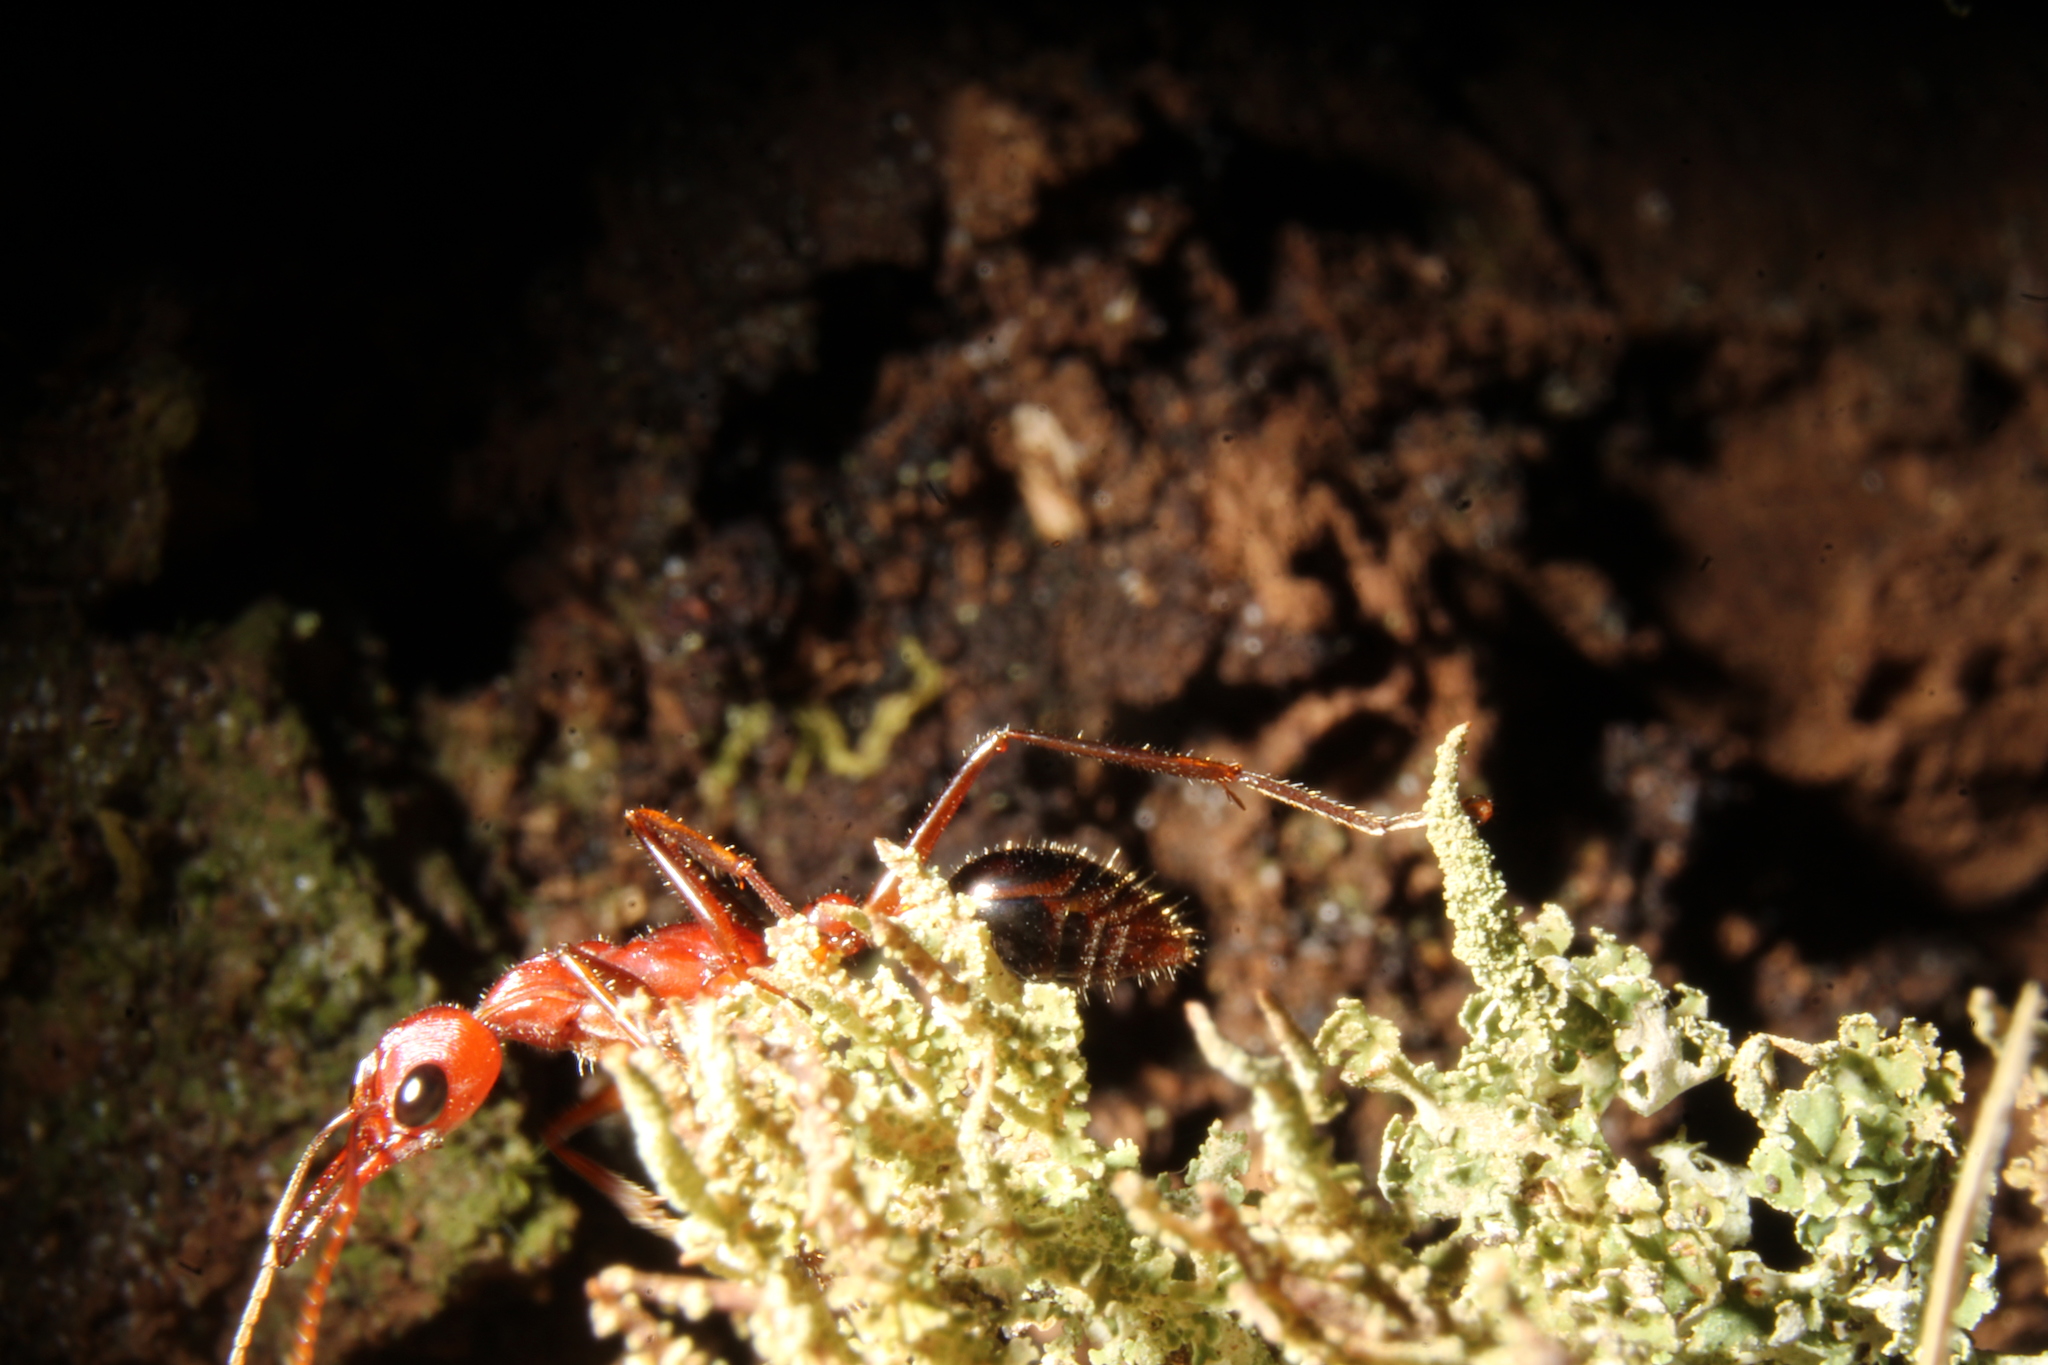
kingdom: Animalia
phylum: Arthropoda
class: Insecta
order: Hymenoptera
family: Formicidae
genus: Myrmecia
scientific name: Myrmecia regularis
